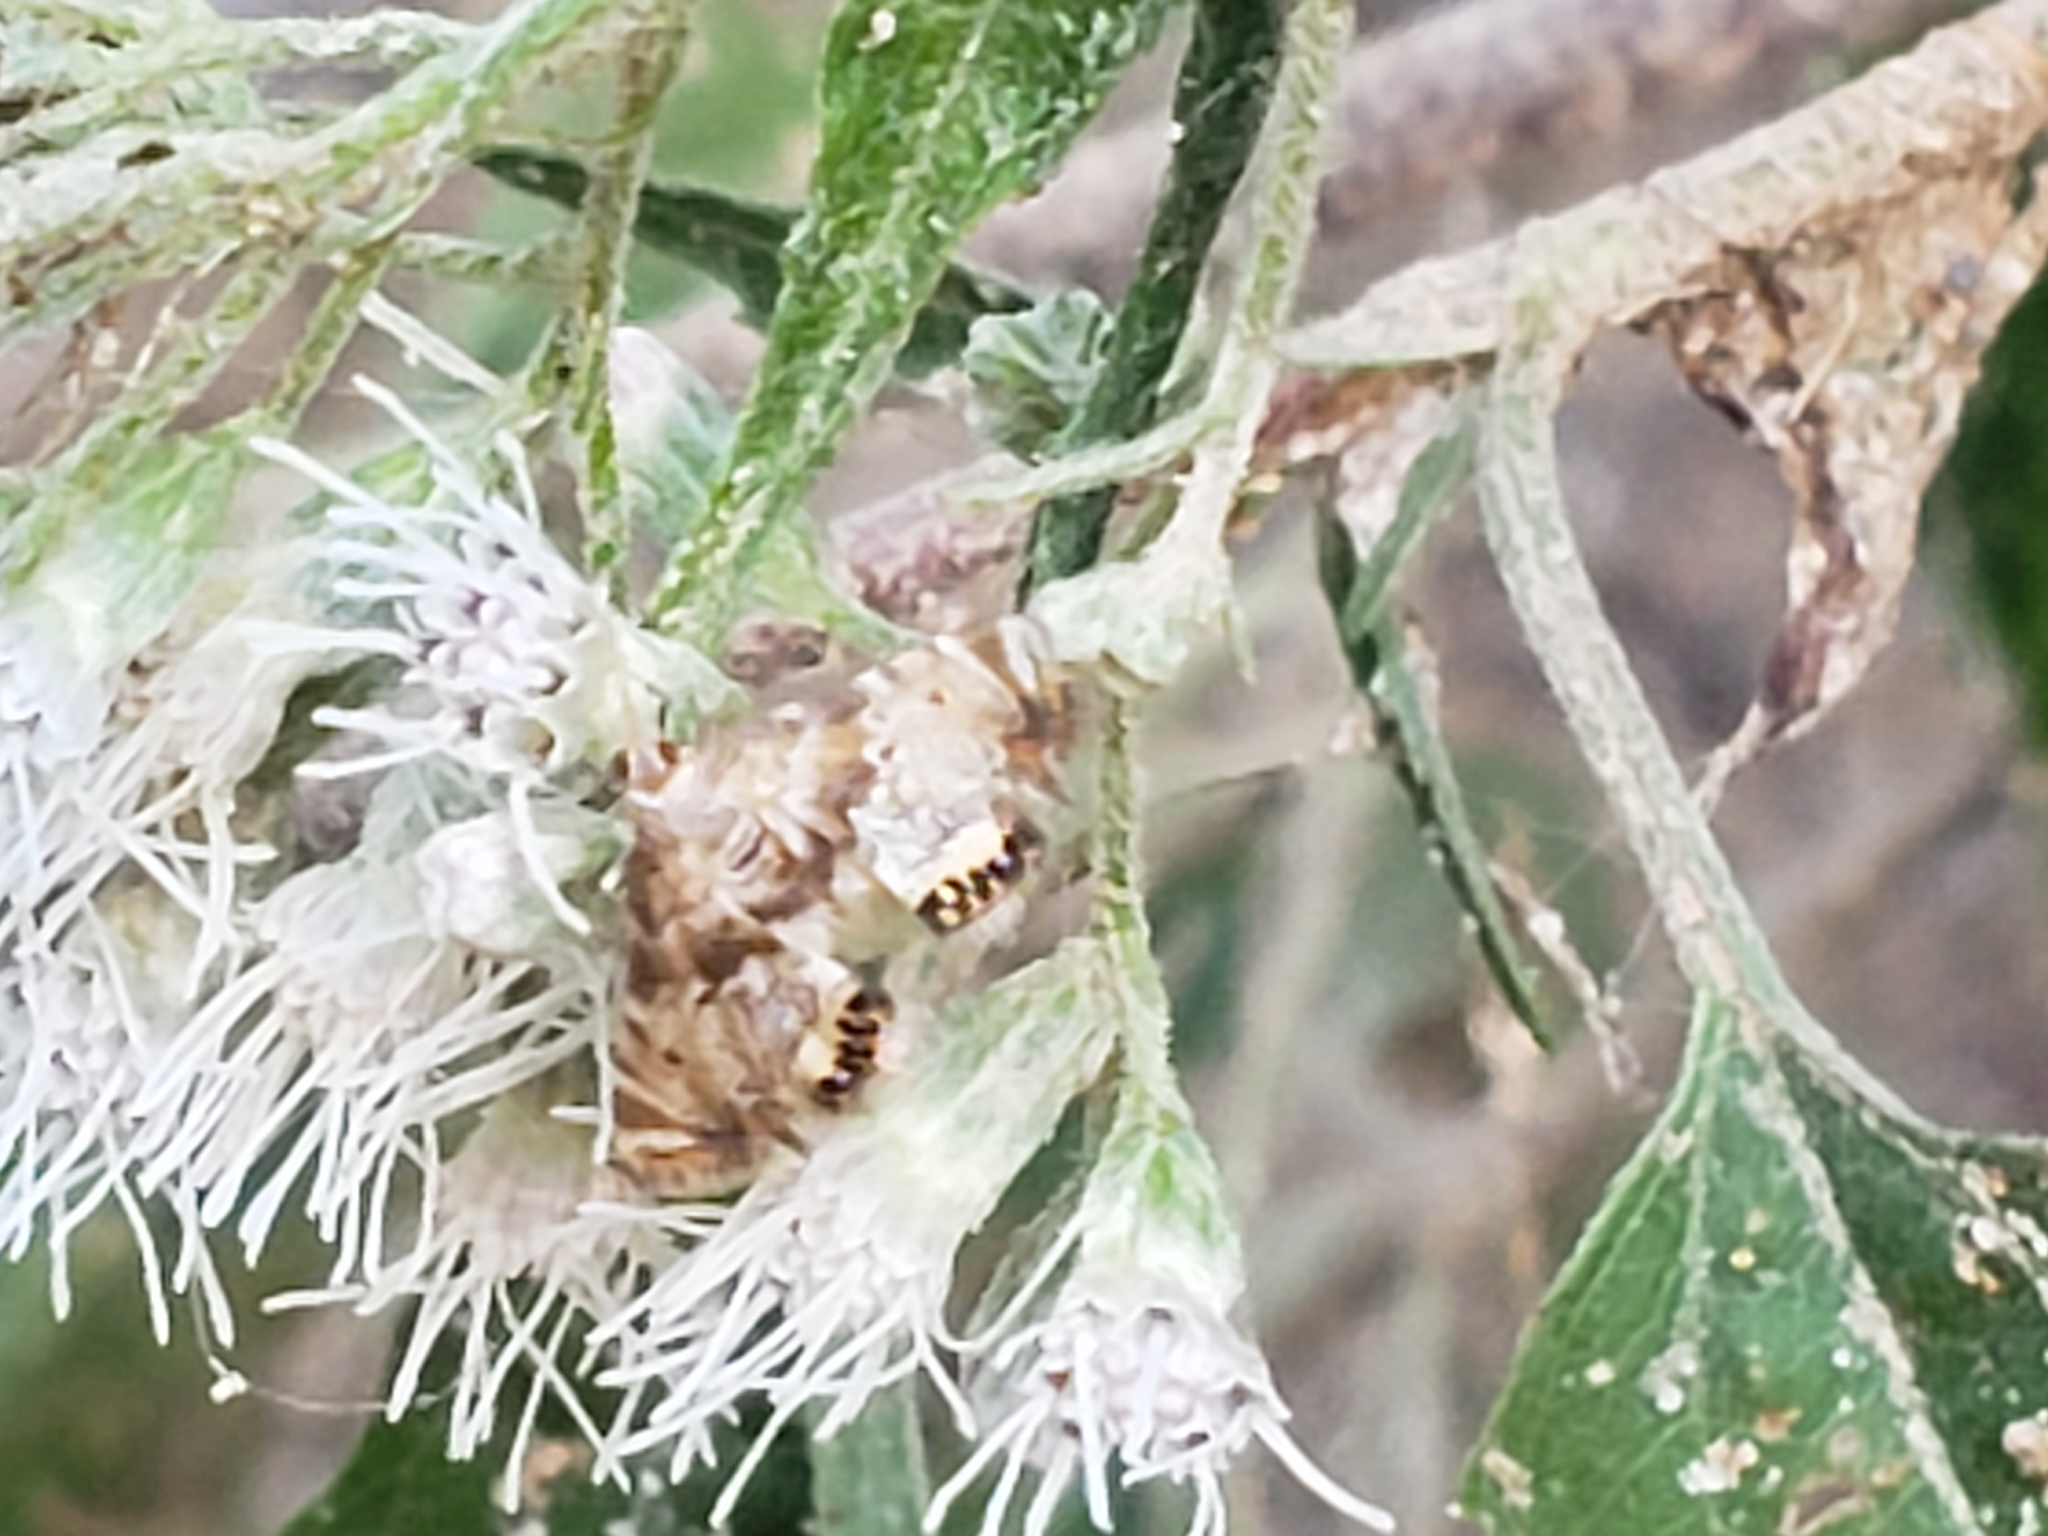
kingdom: Animalia
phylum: Arthropoda
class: Insecta
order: Lepidoptera
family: Crambidae
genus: Petrophila
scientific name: Petrophila fulicalis
